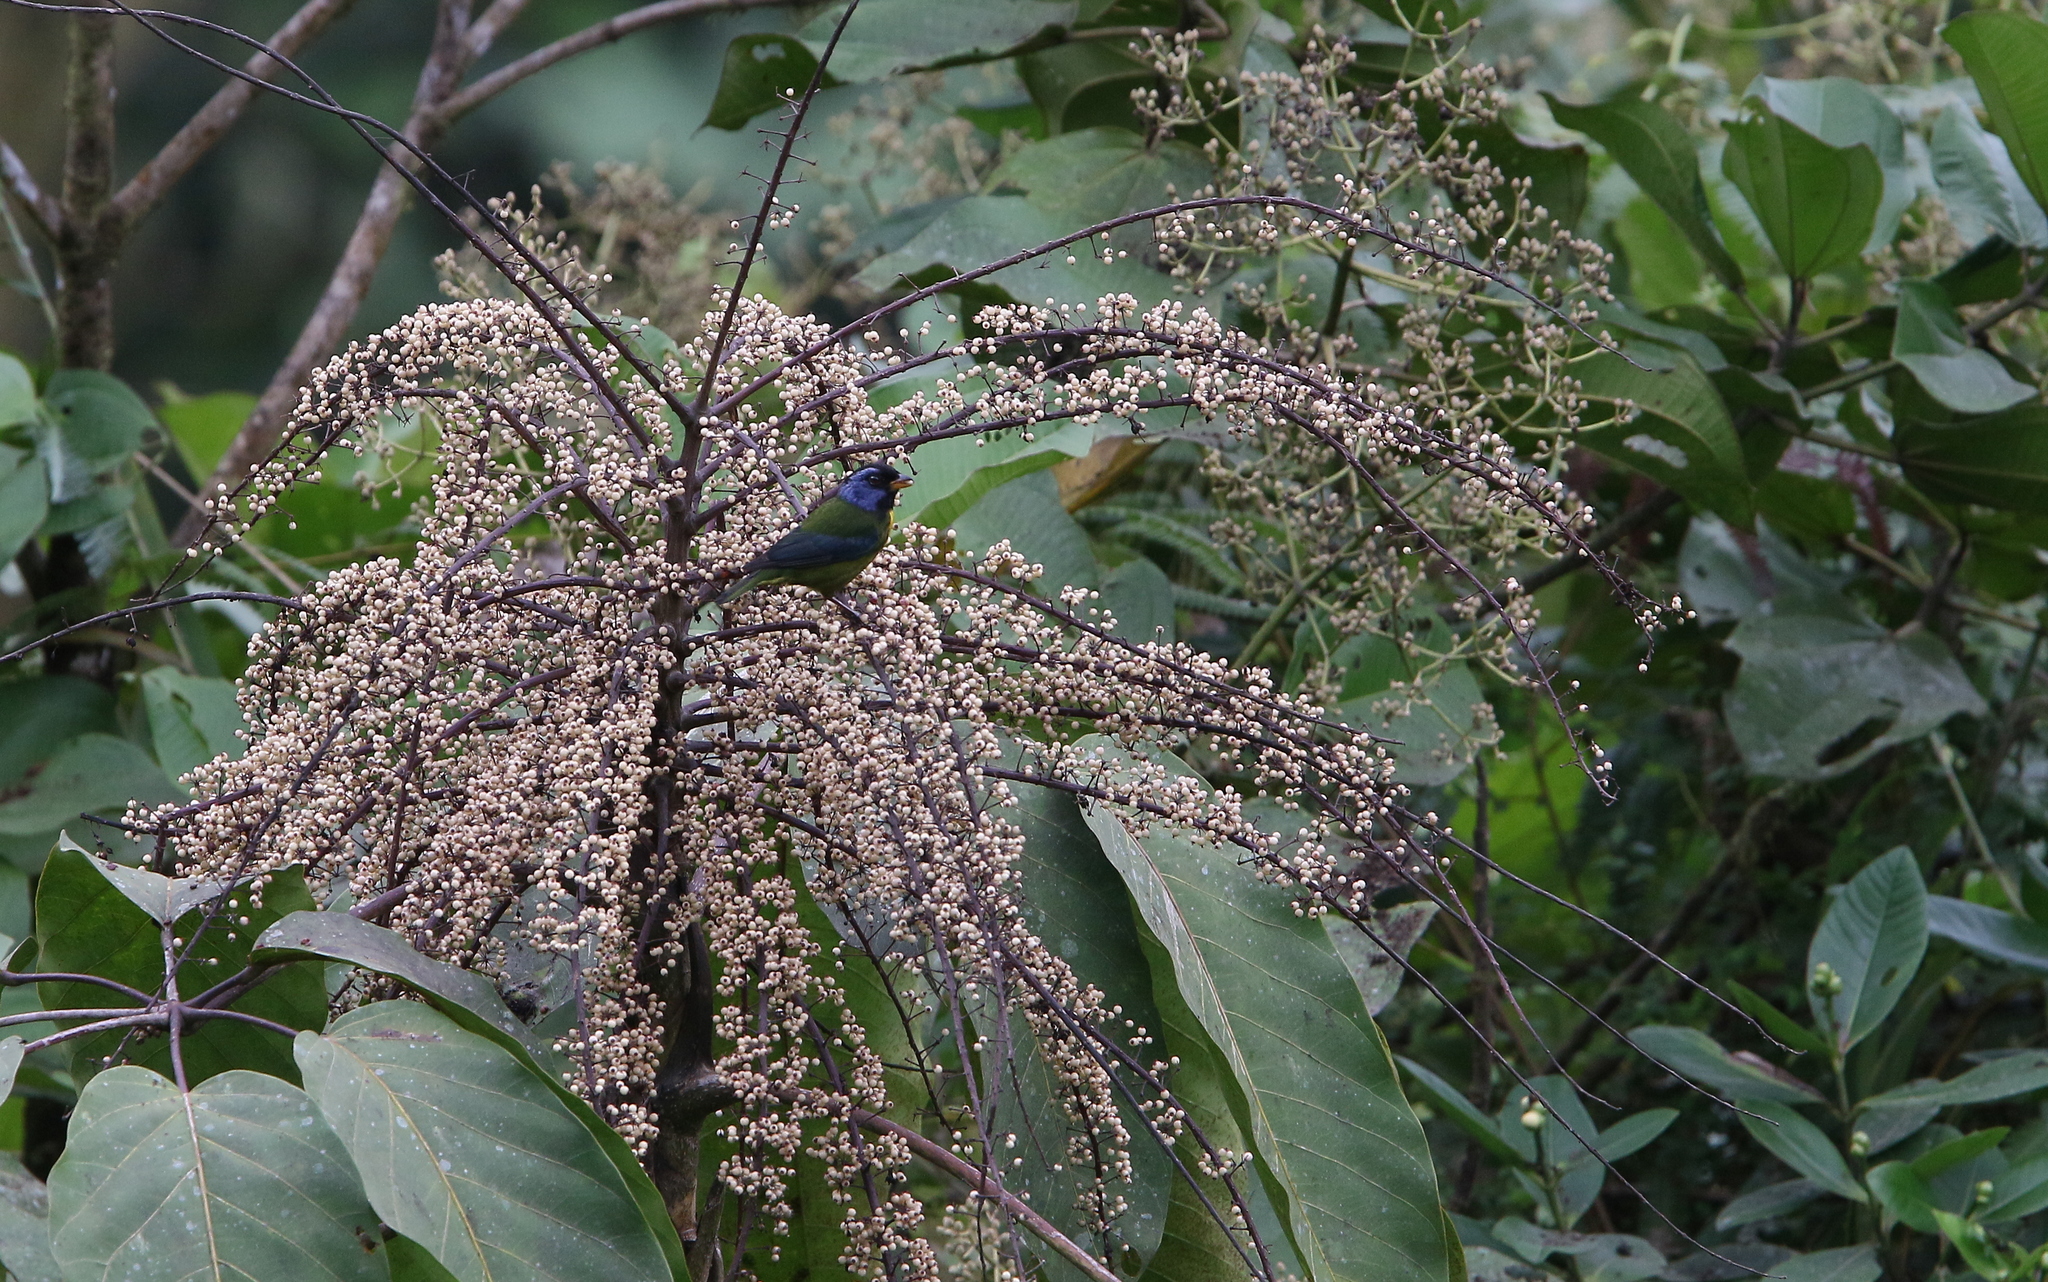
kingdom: Animalia
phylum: Chordata
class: Aves
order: Passeriformes
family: Thraupidae
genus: Bangsia
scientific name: Bangsia edwardsi
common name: Moss-backed tanager
